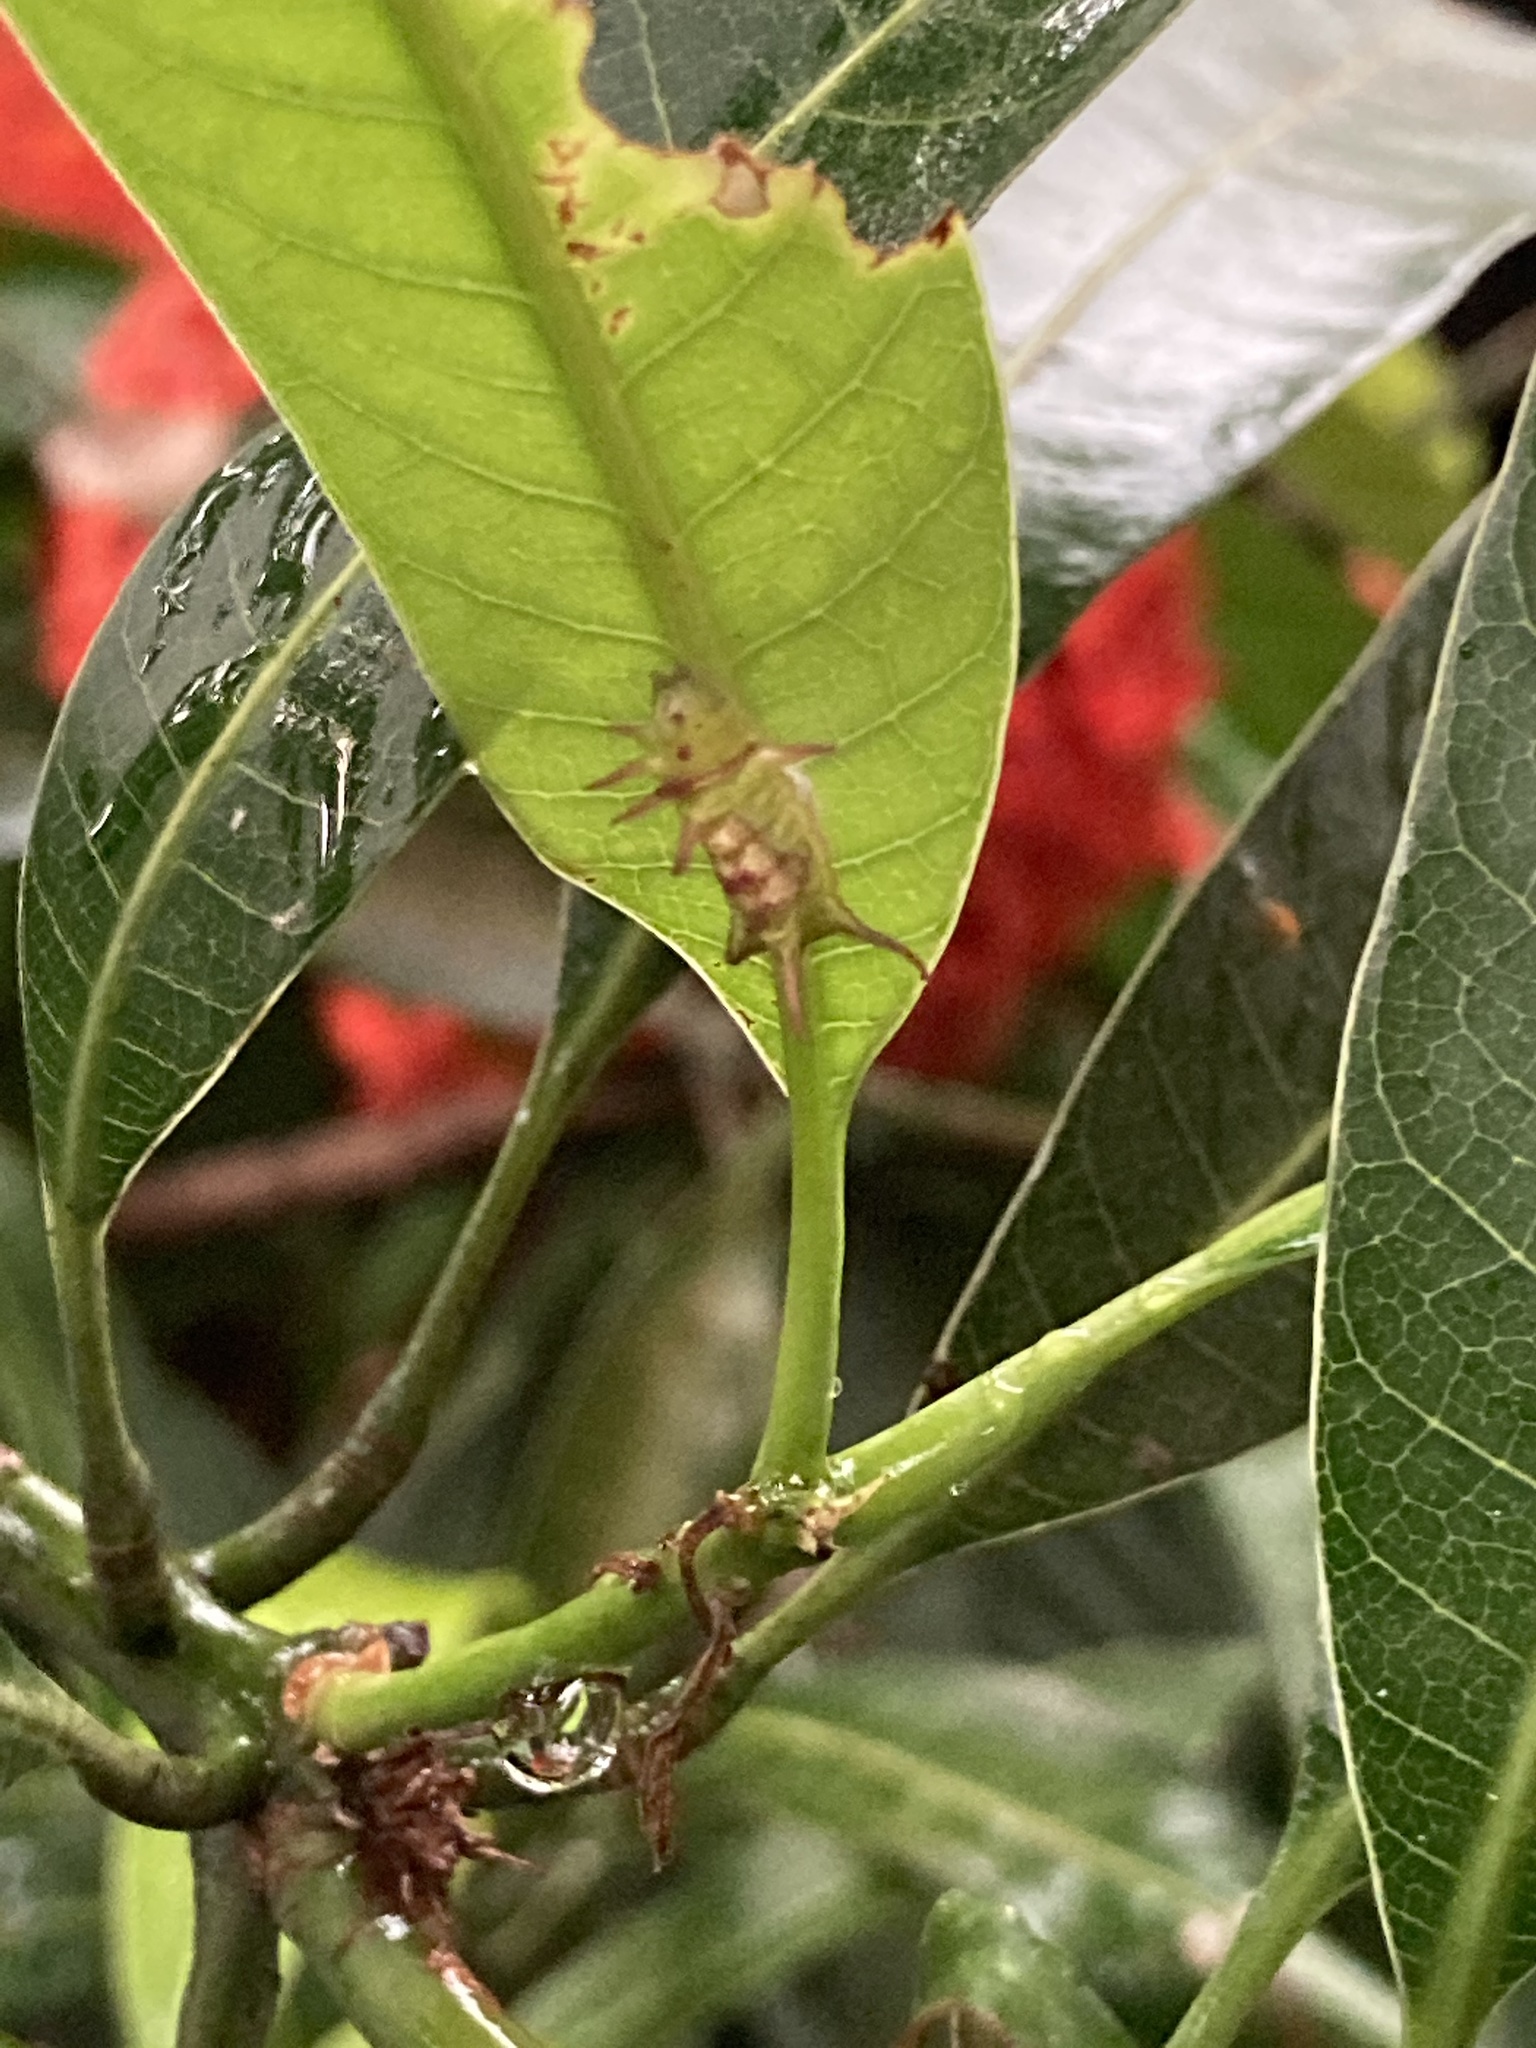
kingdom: Animalia
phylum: Arthropoda
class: Insecta
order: Lepidoptera
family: Lycaenidae
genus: Rathinda
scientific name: Rathinda amor
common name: Monkey puzzle
